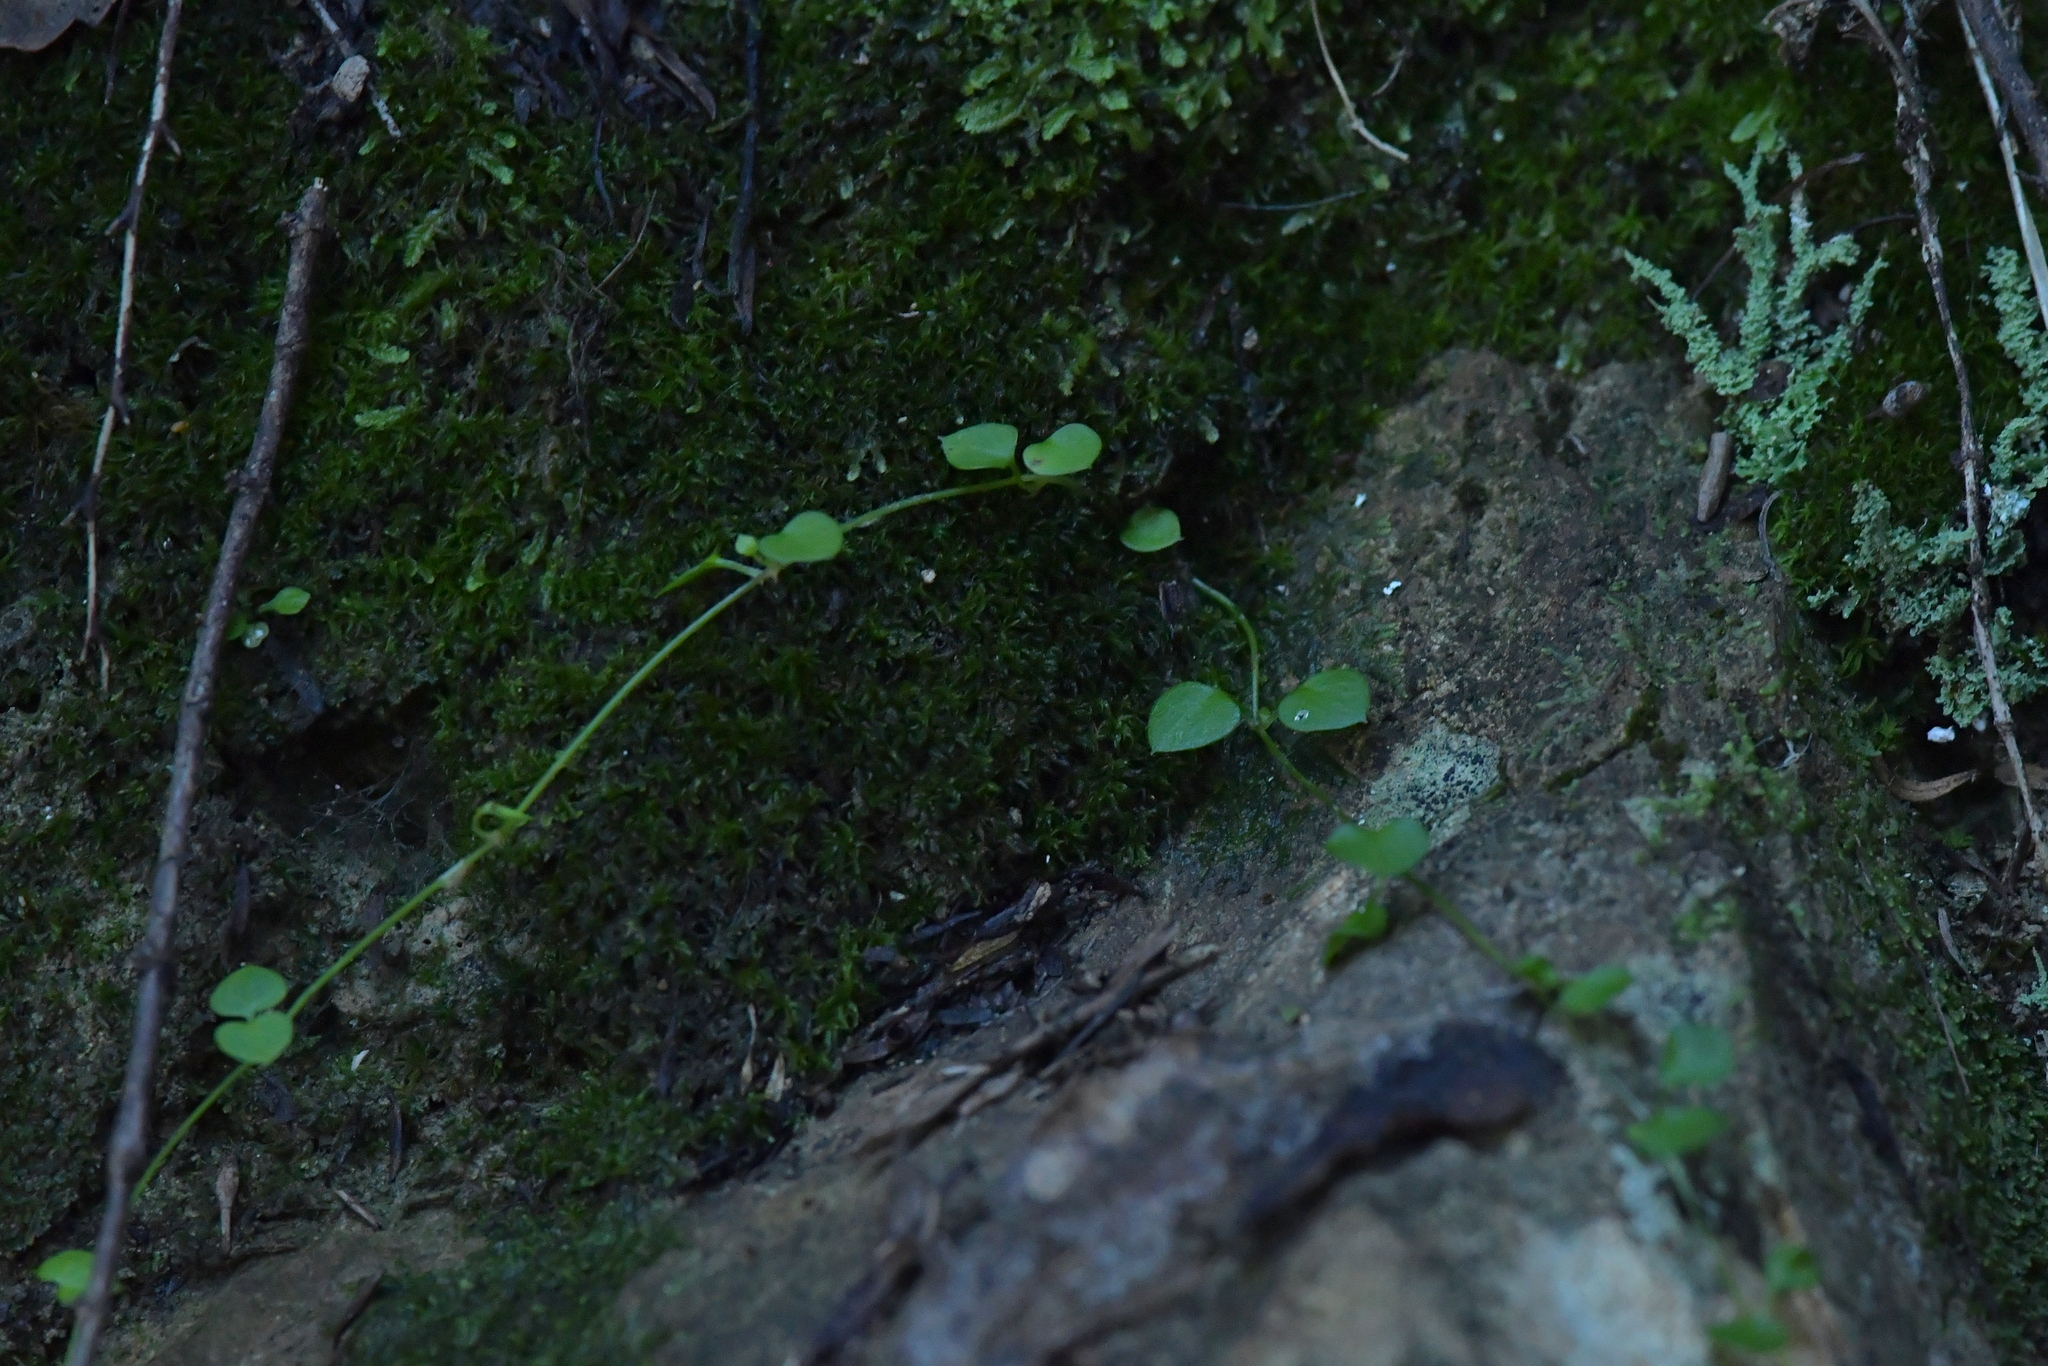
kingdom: Plantae
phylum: Tracheophyta
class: Magnoliopsida
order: Caryophyllales
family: Caryophyllaceae
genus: Stellaria
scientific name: Stellaria parviflora
